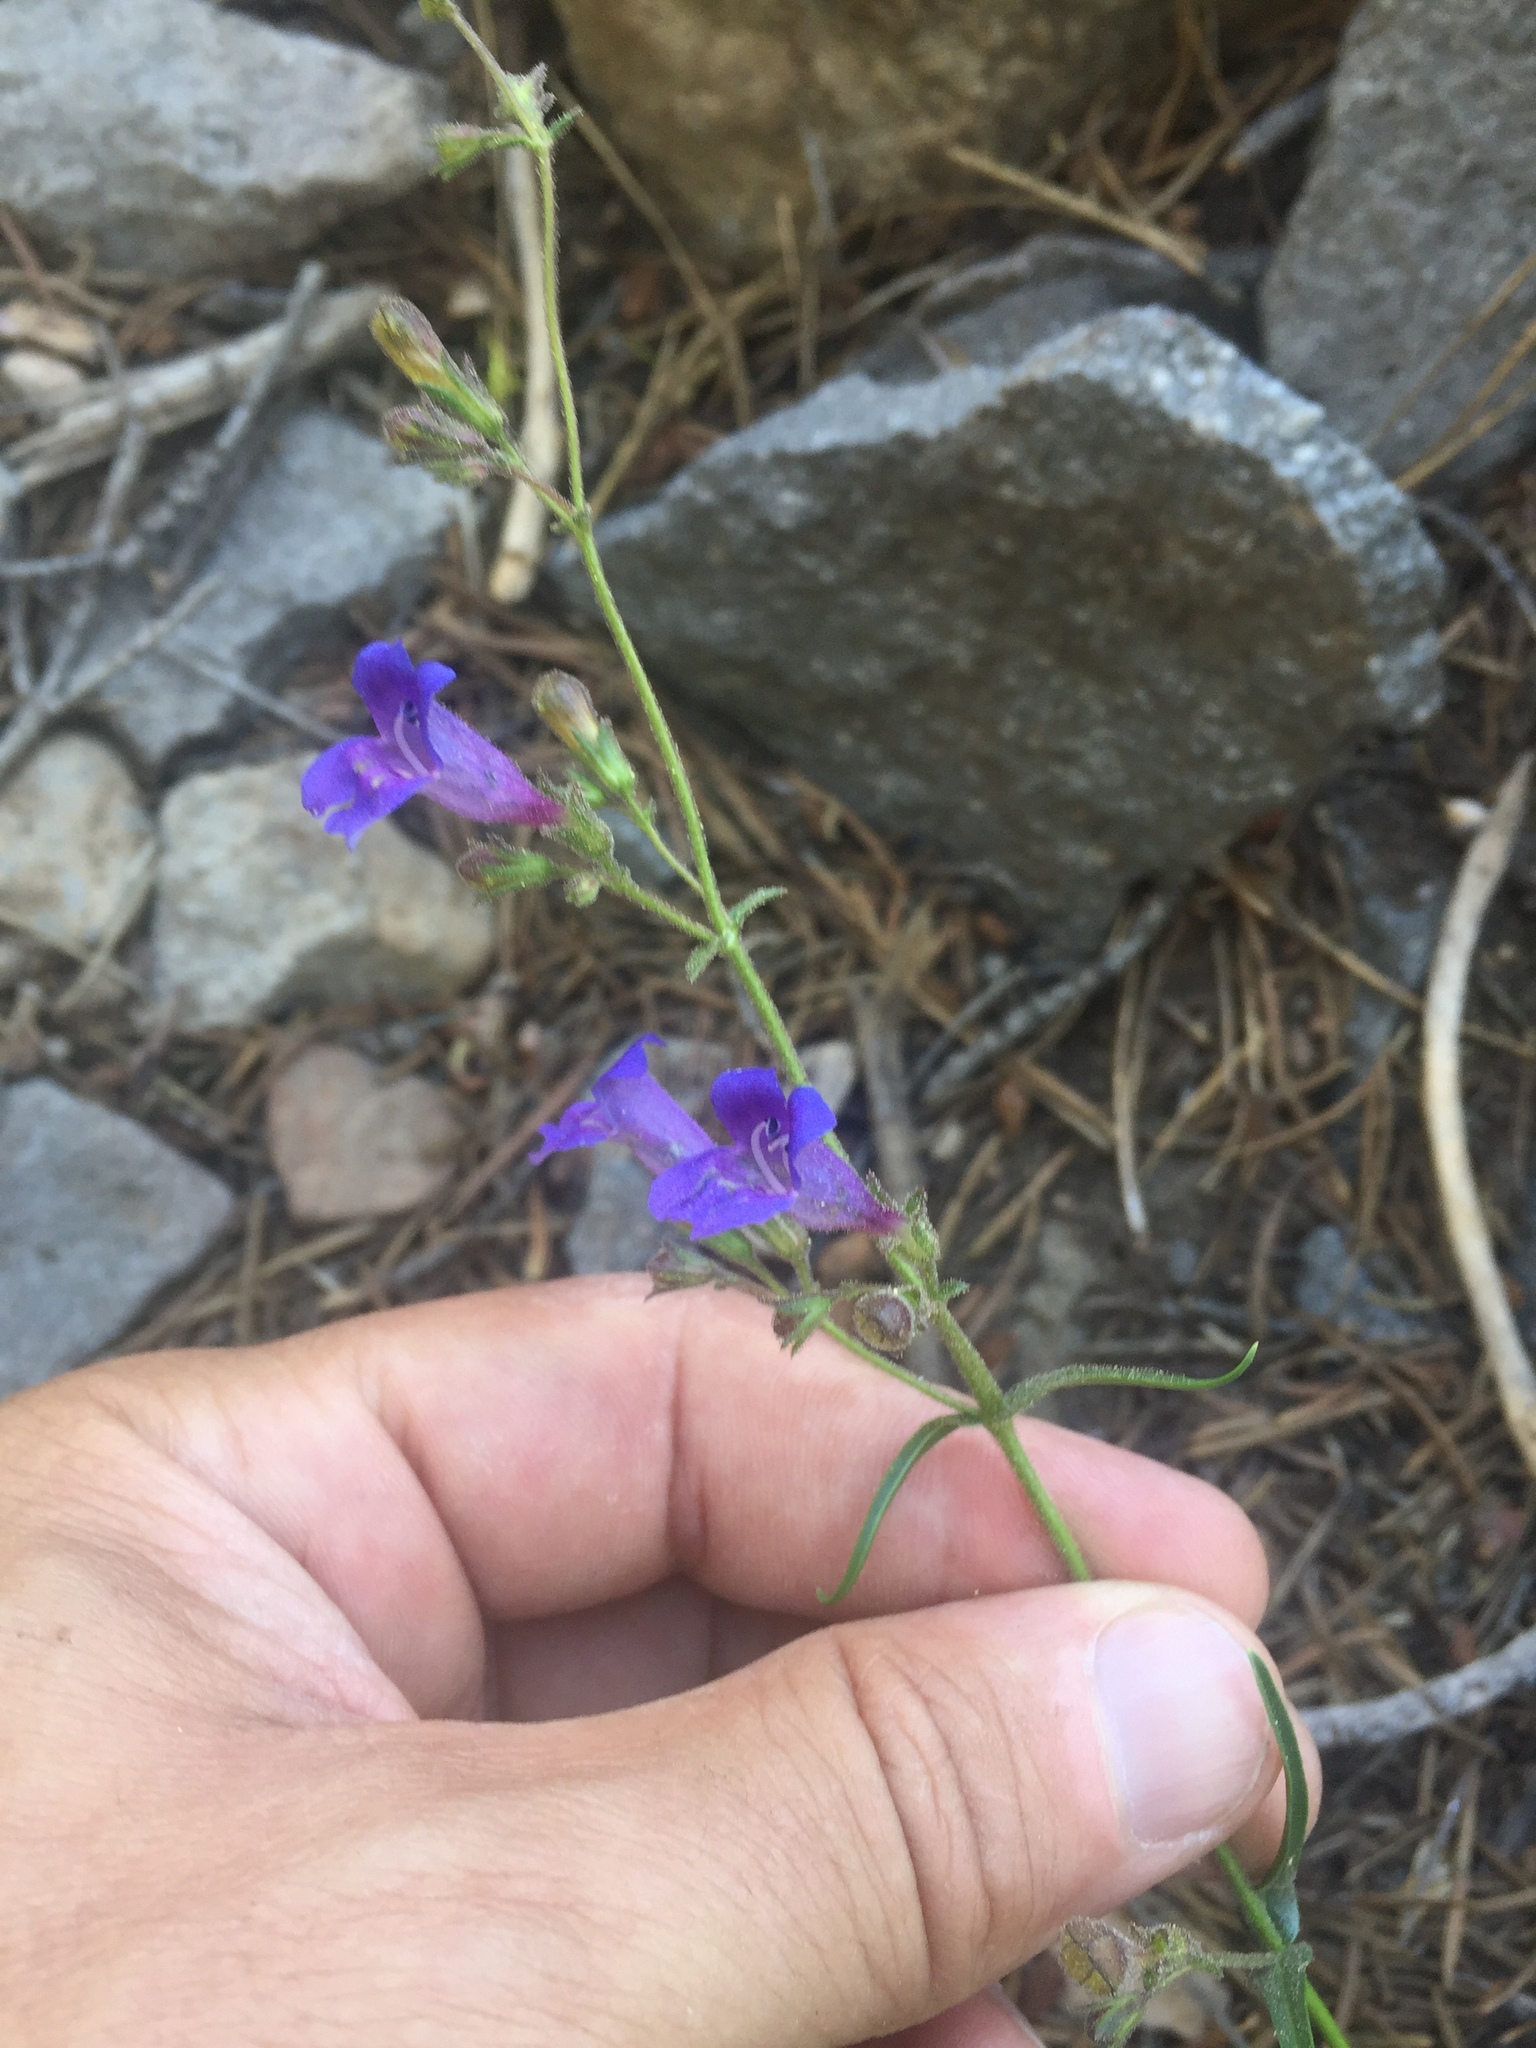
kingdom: Plantae
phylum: Tracheophyta
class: Magnoliopsida
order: Lamiales
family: Plantaginaceae
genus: Penstemon
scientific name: Penstemon roezlii
